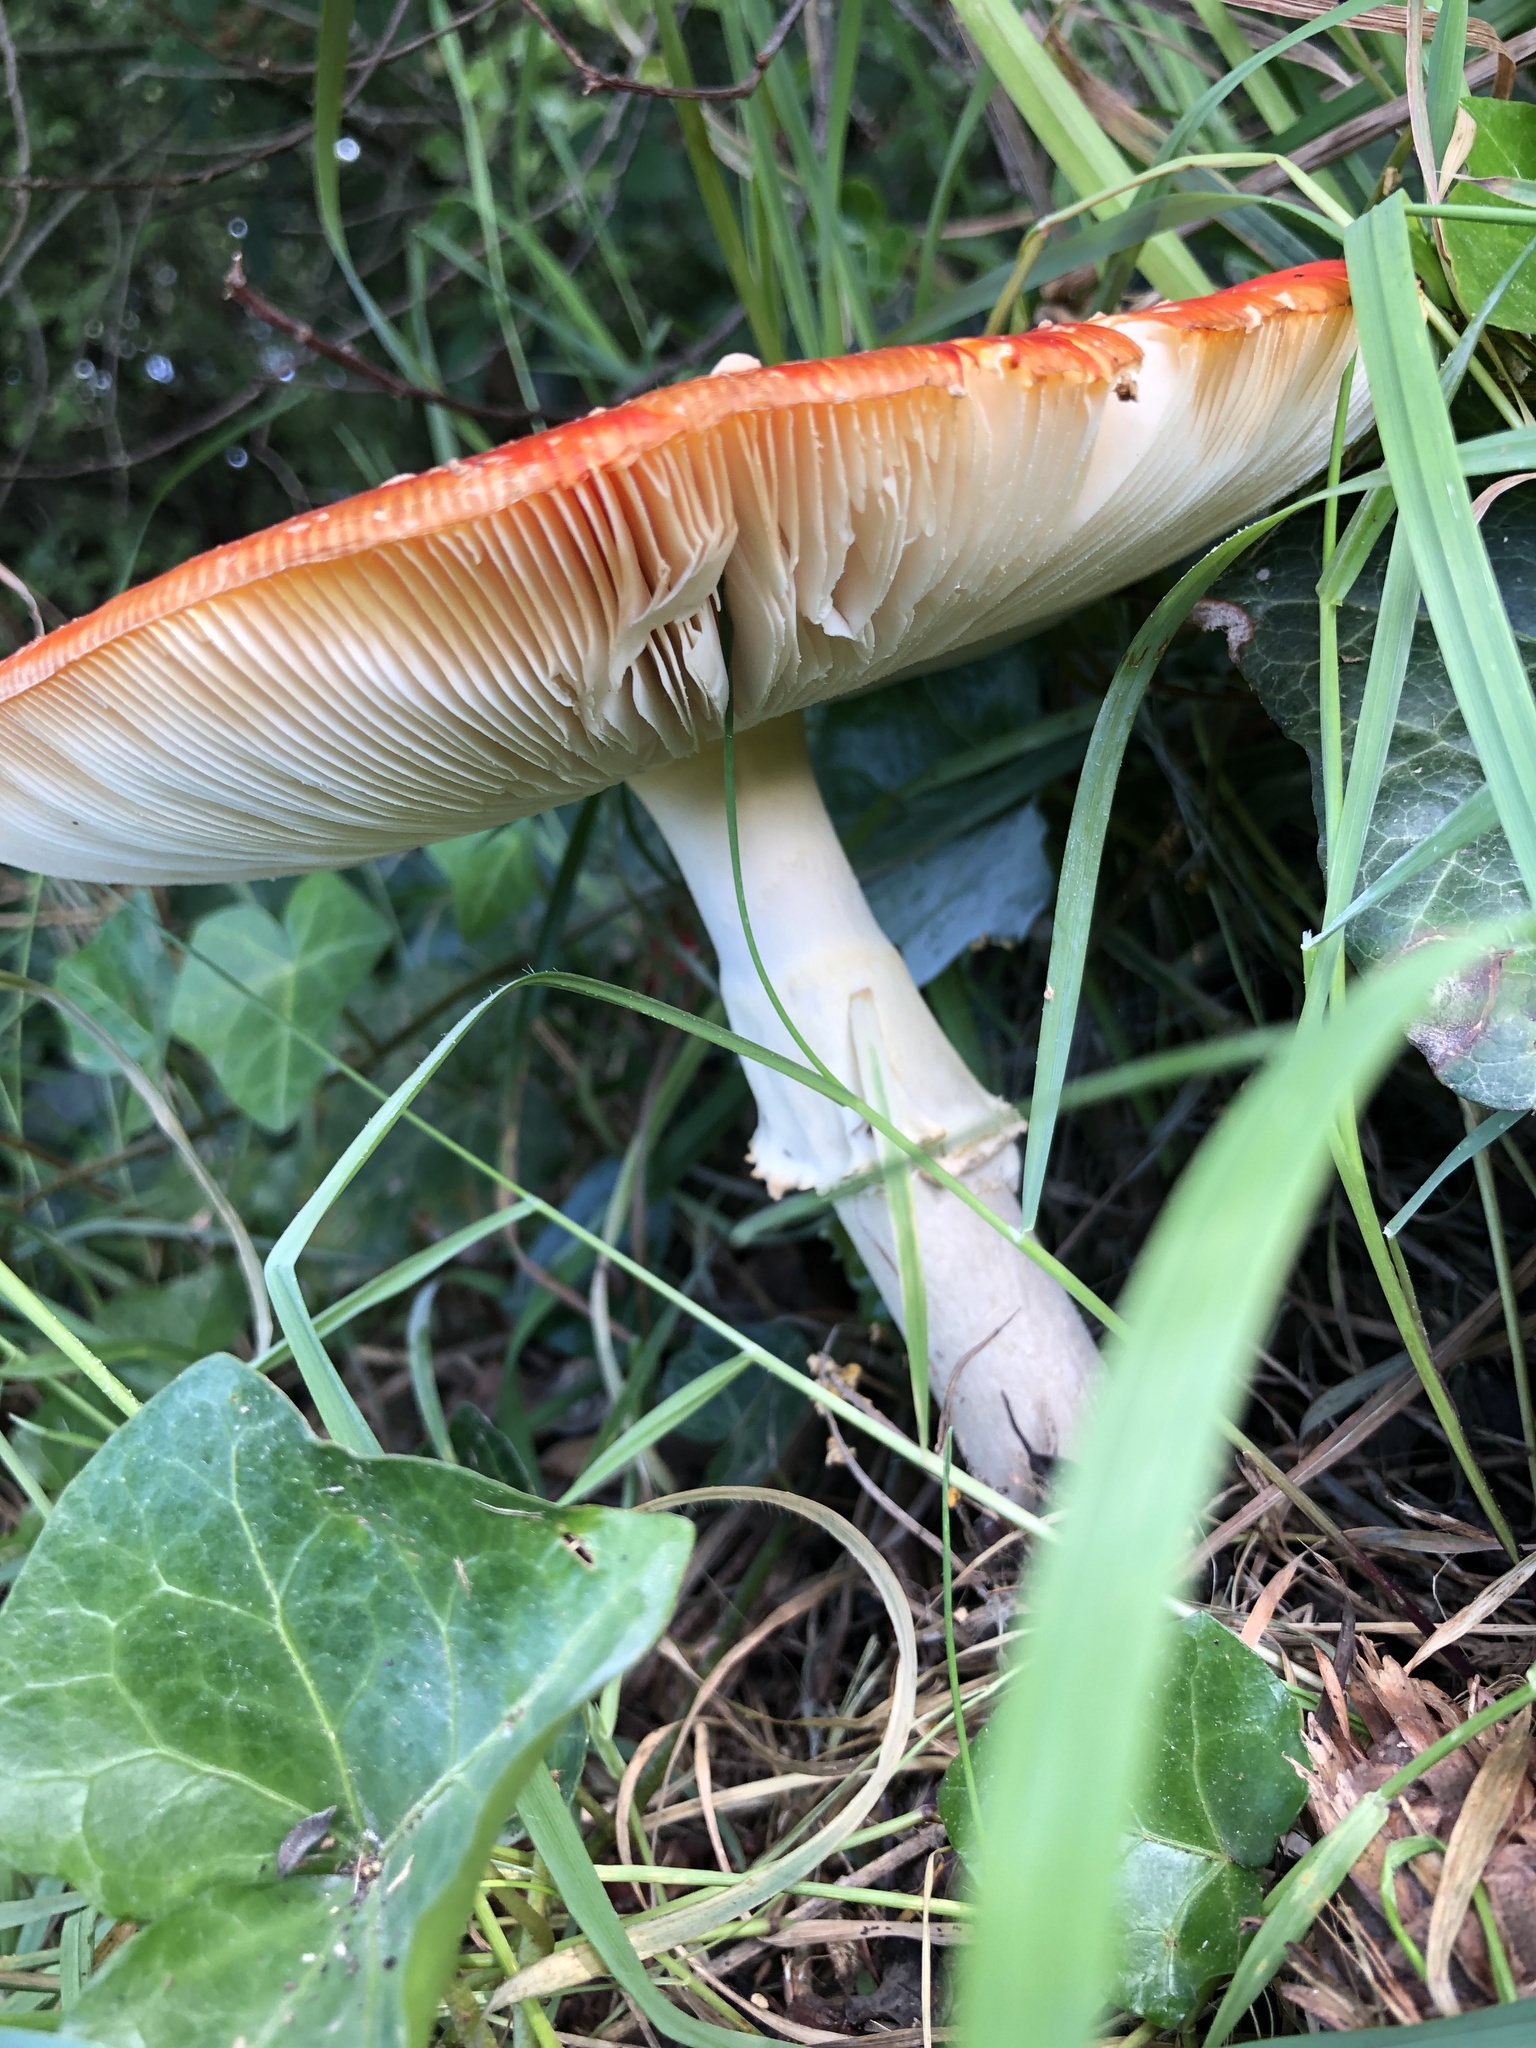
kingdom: Fungi
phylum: Basidiomycota
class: Agaricomycetes
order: Agaricales
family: Amanitaceae
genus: Amanita
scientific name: Amanita muscaria
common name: Fly agaric
